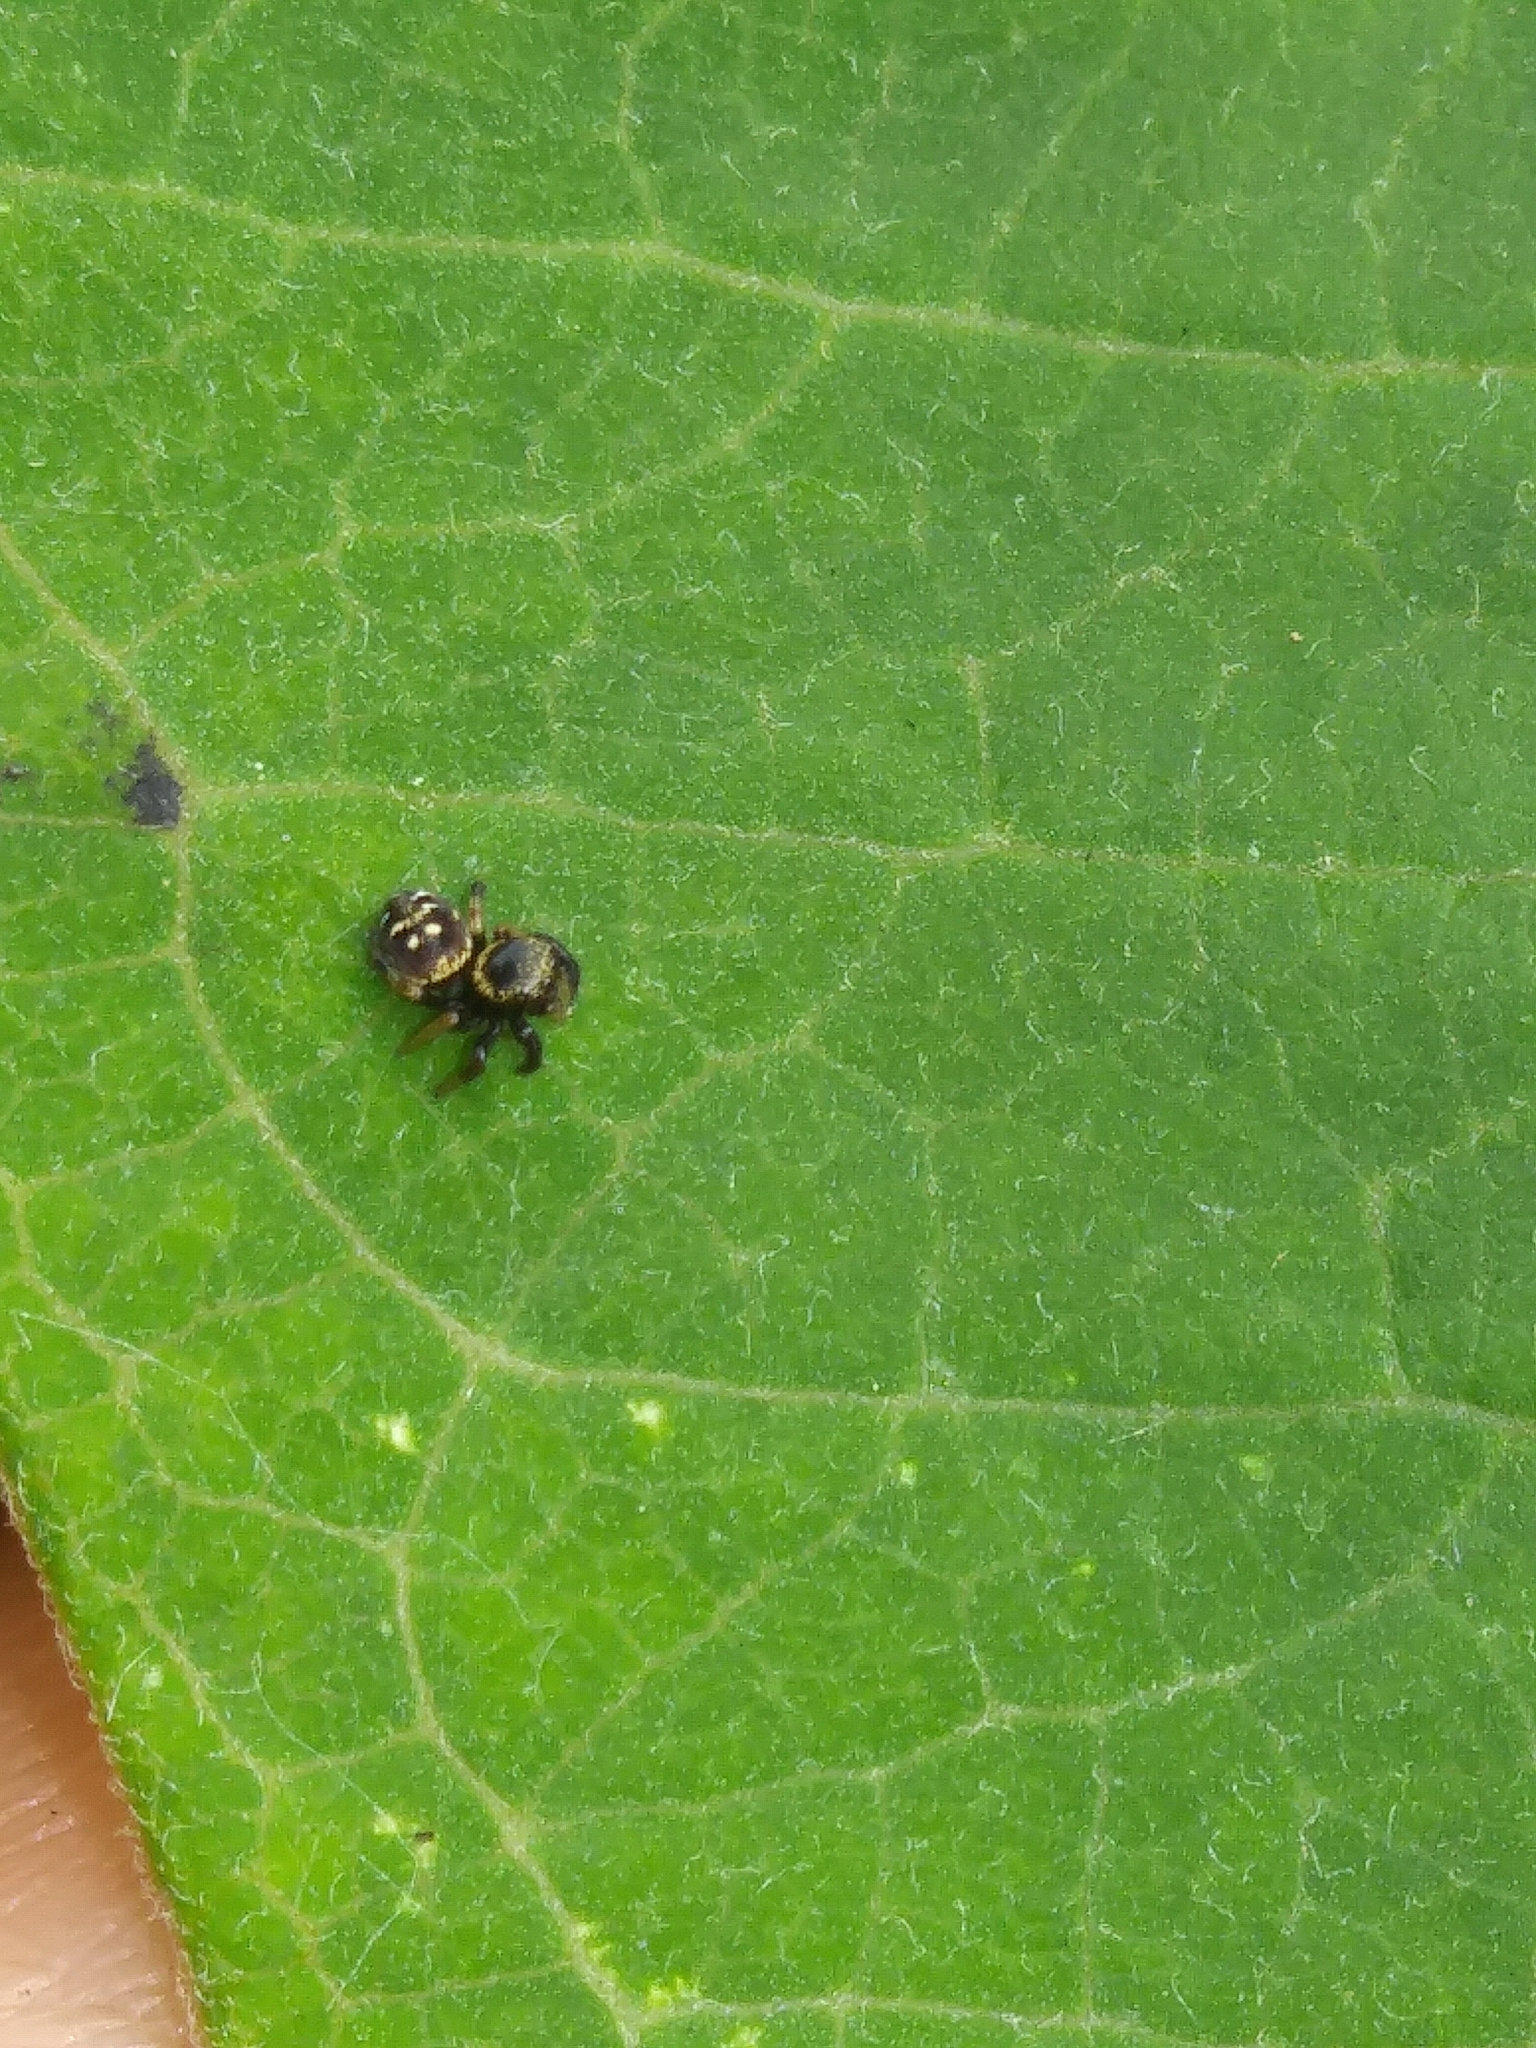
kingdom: Animalia
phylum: Arthropoda
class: Arachnida
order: Araneae
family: Salticidae
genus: Paraphidippus
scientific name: Paraphidippus aurantius
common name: Jumping spiders
